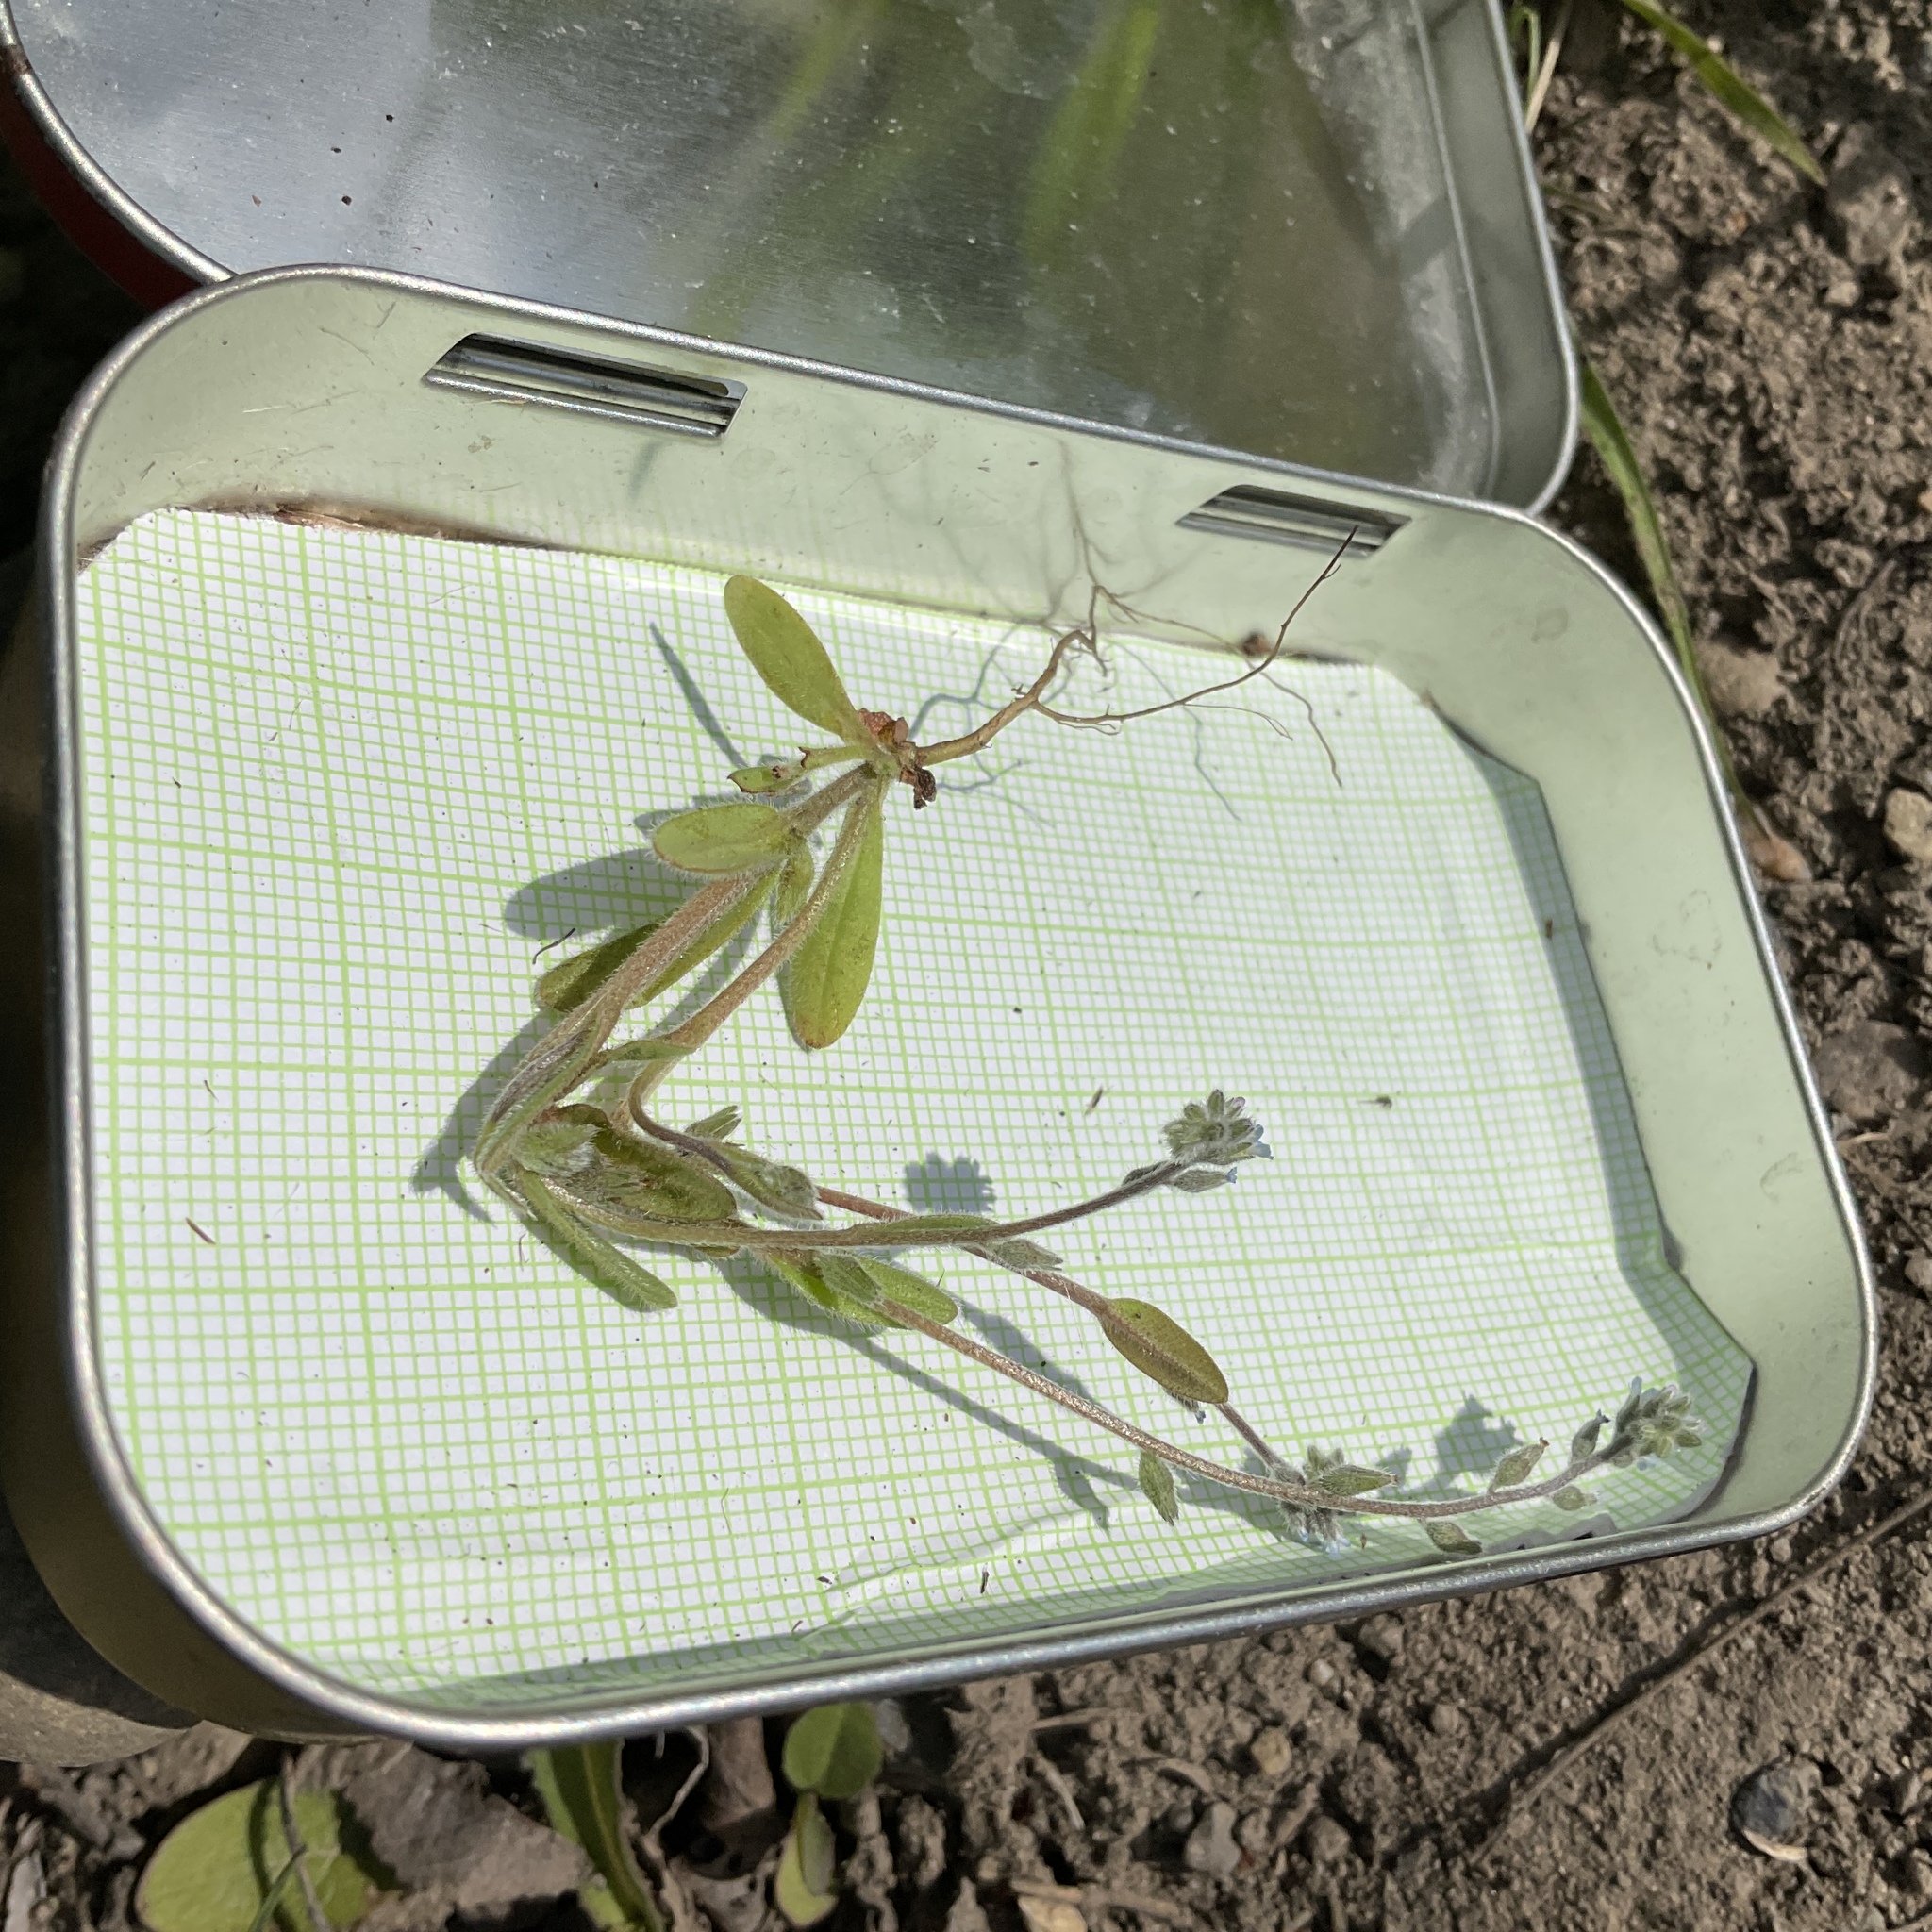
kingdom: Plantae
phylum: Tracheophyta
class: Magnoliopsida
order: Boraginales
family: Boraginaceae
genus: Myosotis
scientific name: Myosotis stricta
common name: Strict forget-me-not
